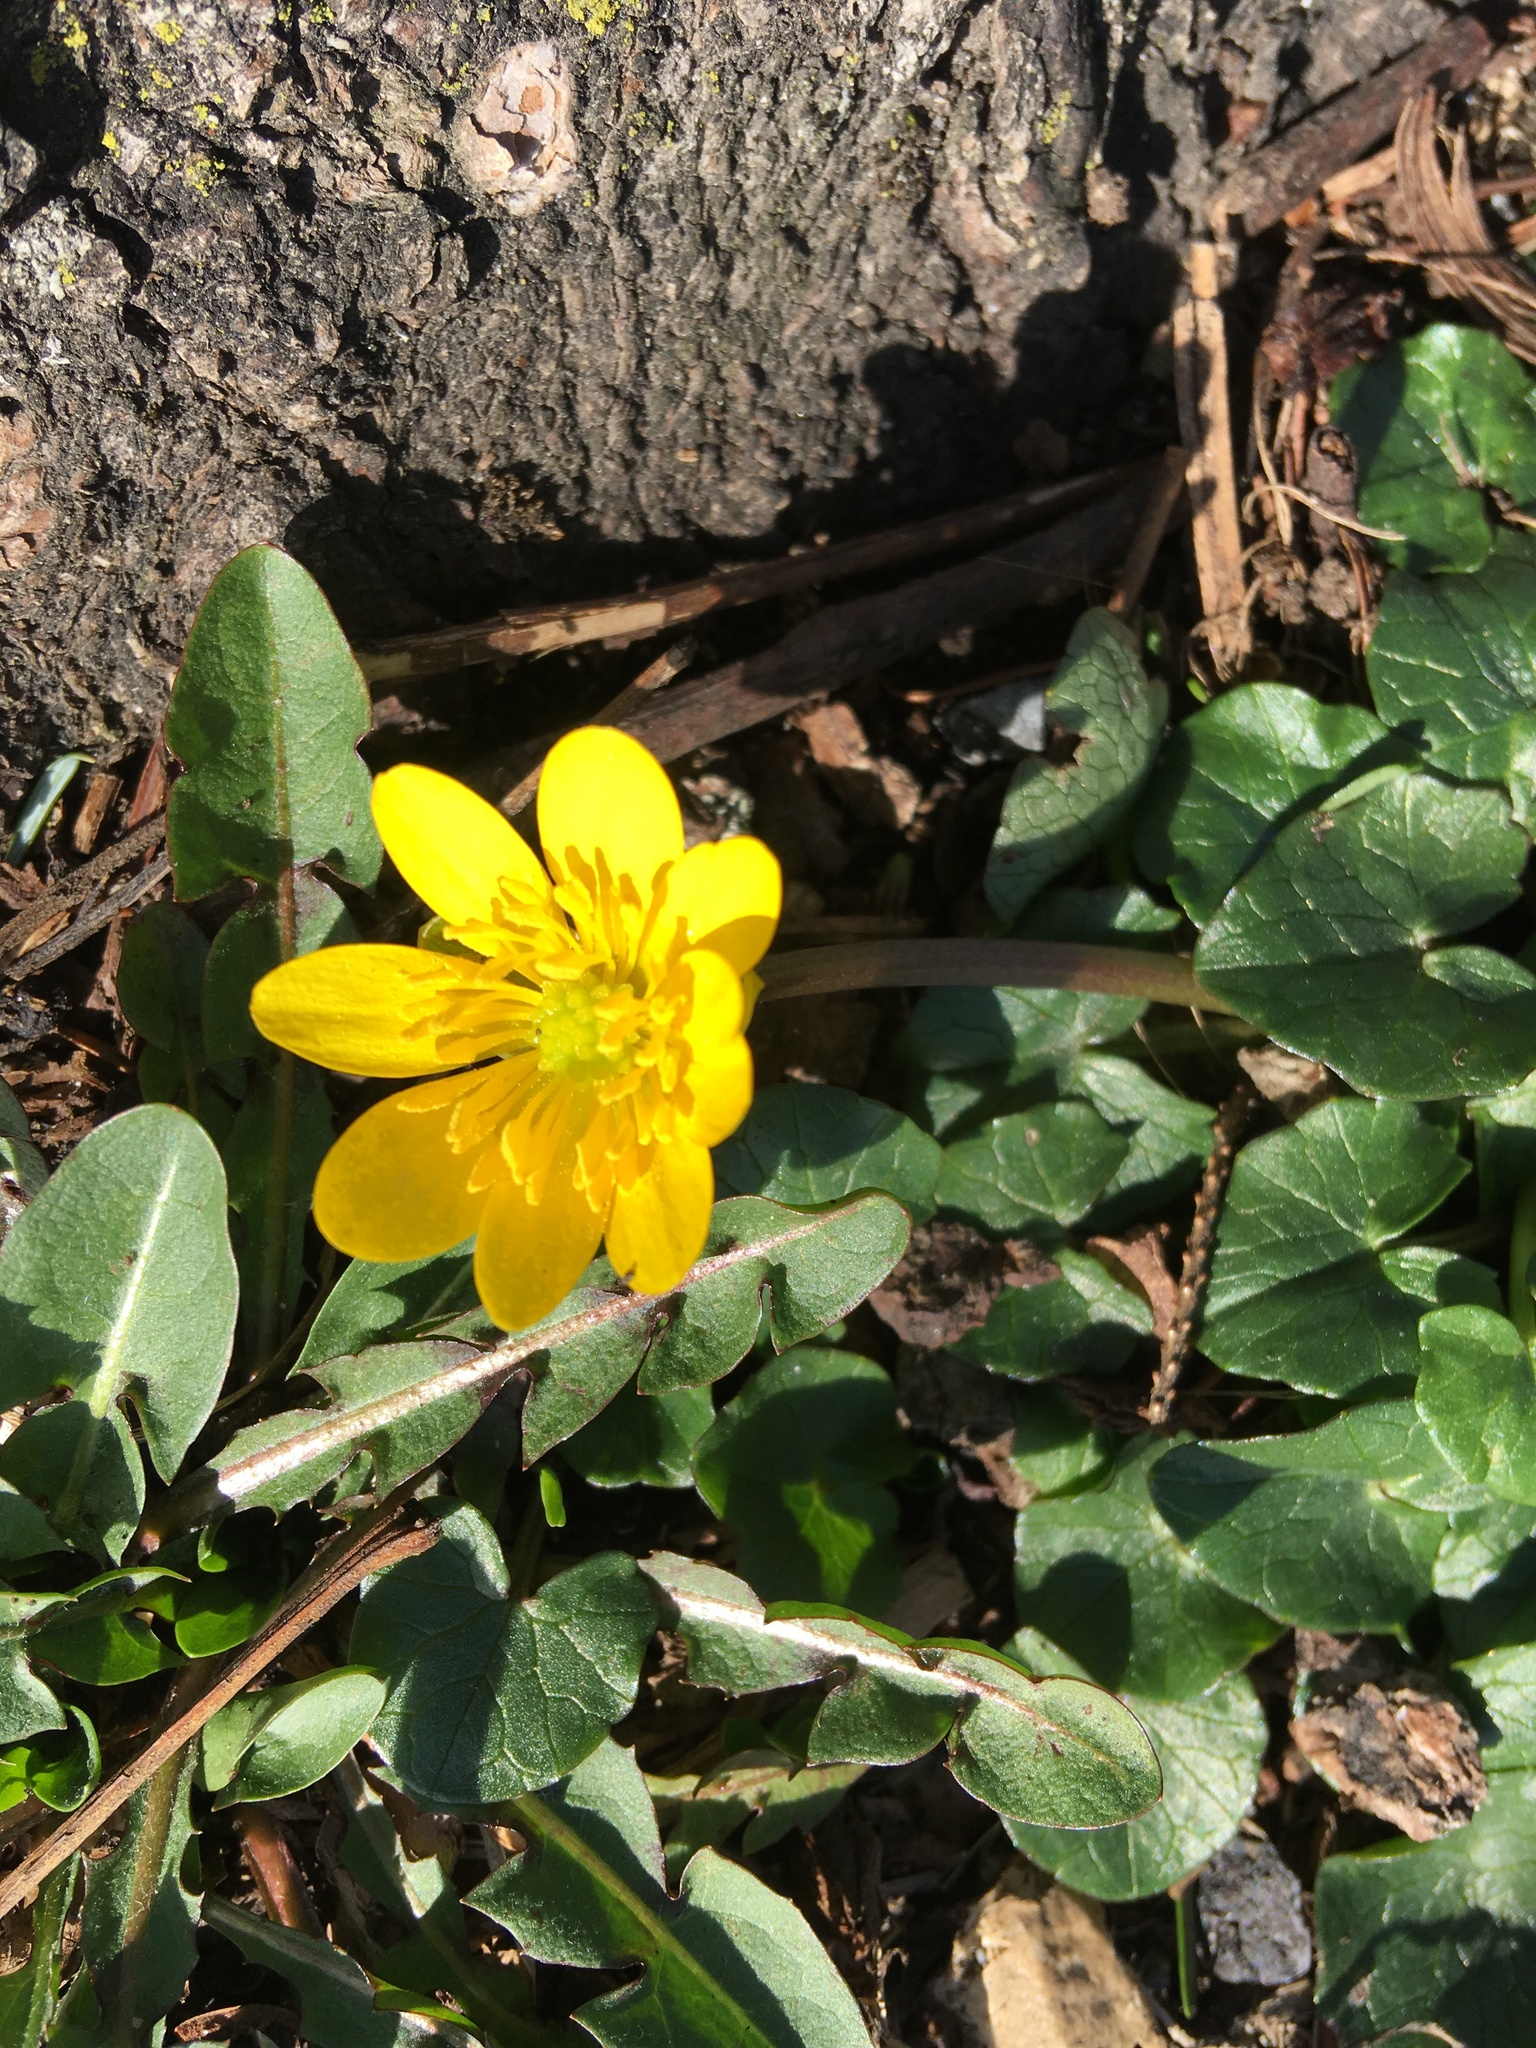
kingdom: Plantae
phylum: Tracheophyta
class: Magnoliopsida
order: Ranunculales
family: Ranunculaceae
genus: Ficaria
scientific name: Ficaria verna
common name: Lesser celandine
